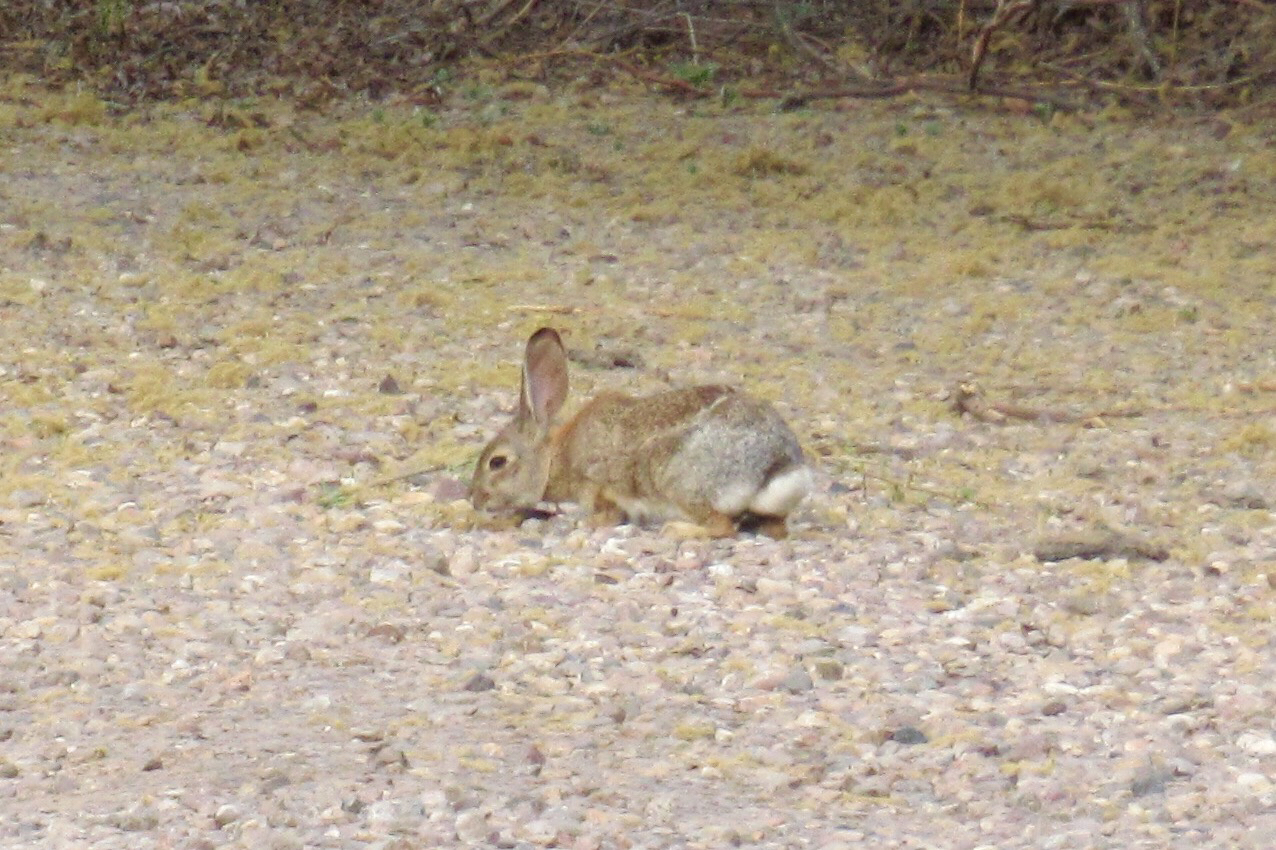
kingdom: Animalia
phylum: Chordata
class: Mammalia
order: Lagomorpha
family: Leporidae
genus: Sylvilagus
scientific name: Sylvilagus audubonii
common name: Desert cottontail
